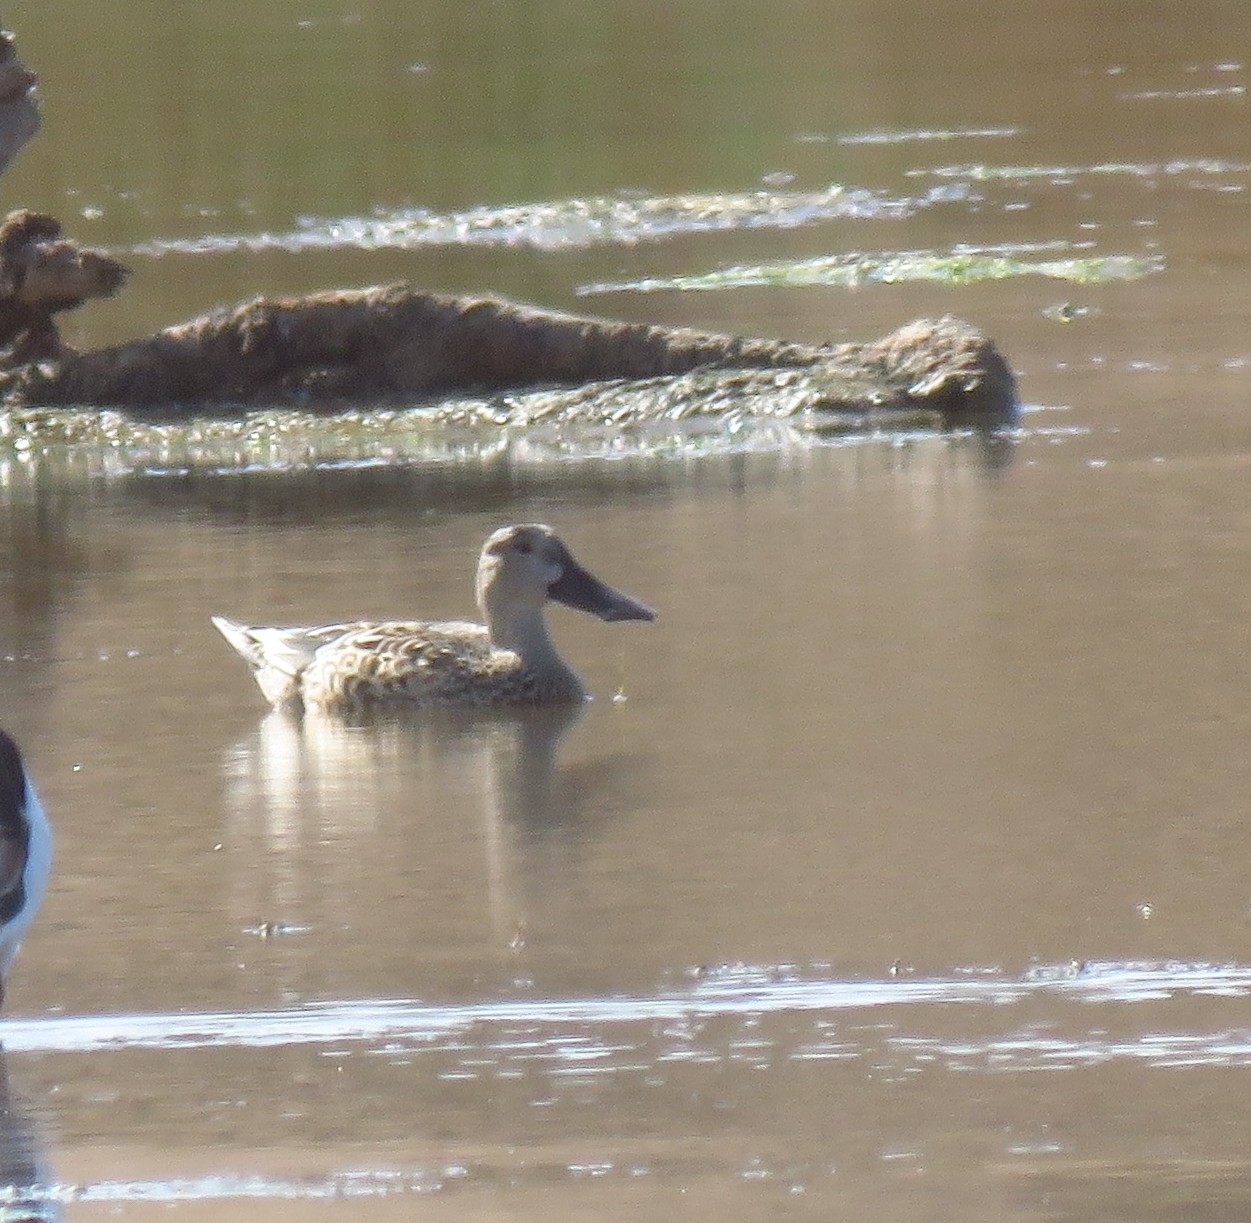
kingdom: Animalia
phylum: Chordata
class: Aves
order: Anseriformes
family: Anatidae
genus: Spatula
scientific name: Spatula clypeata
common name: Northern shoveler
